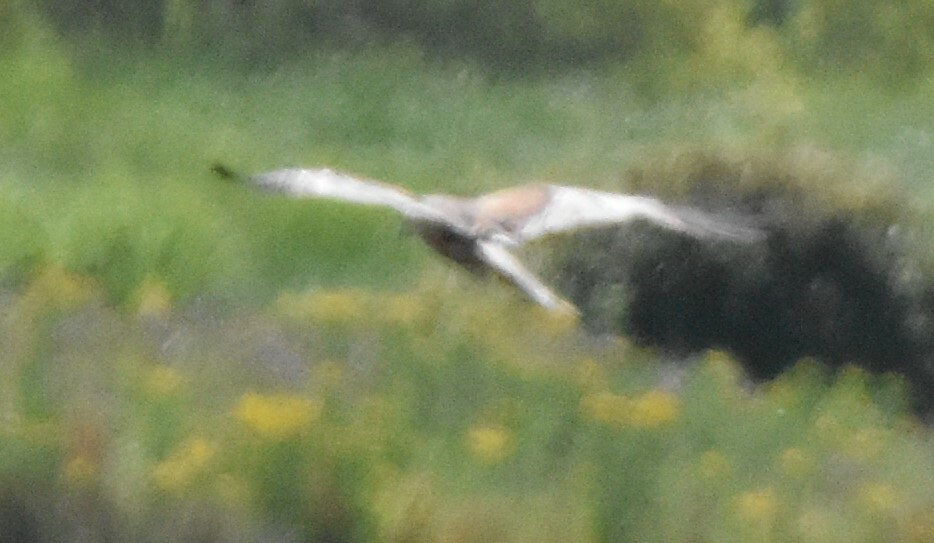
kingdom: Animalia
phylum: Chordata
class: Aves
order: Accipitriformes
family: Accipitridae
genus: Circus
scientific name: Circus aeruginosus
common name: Western marsh harrier
